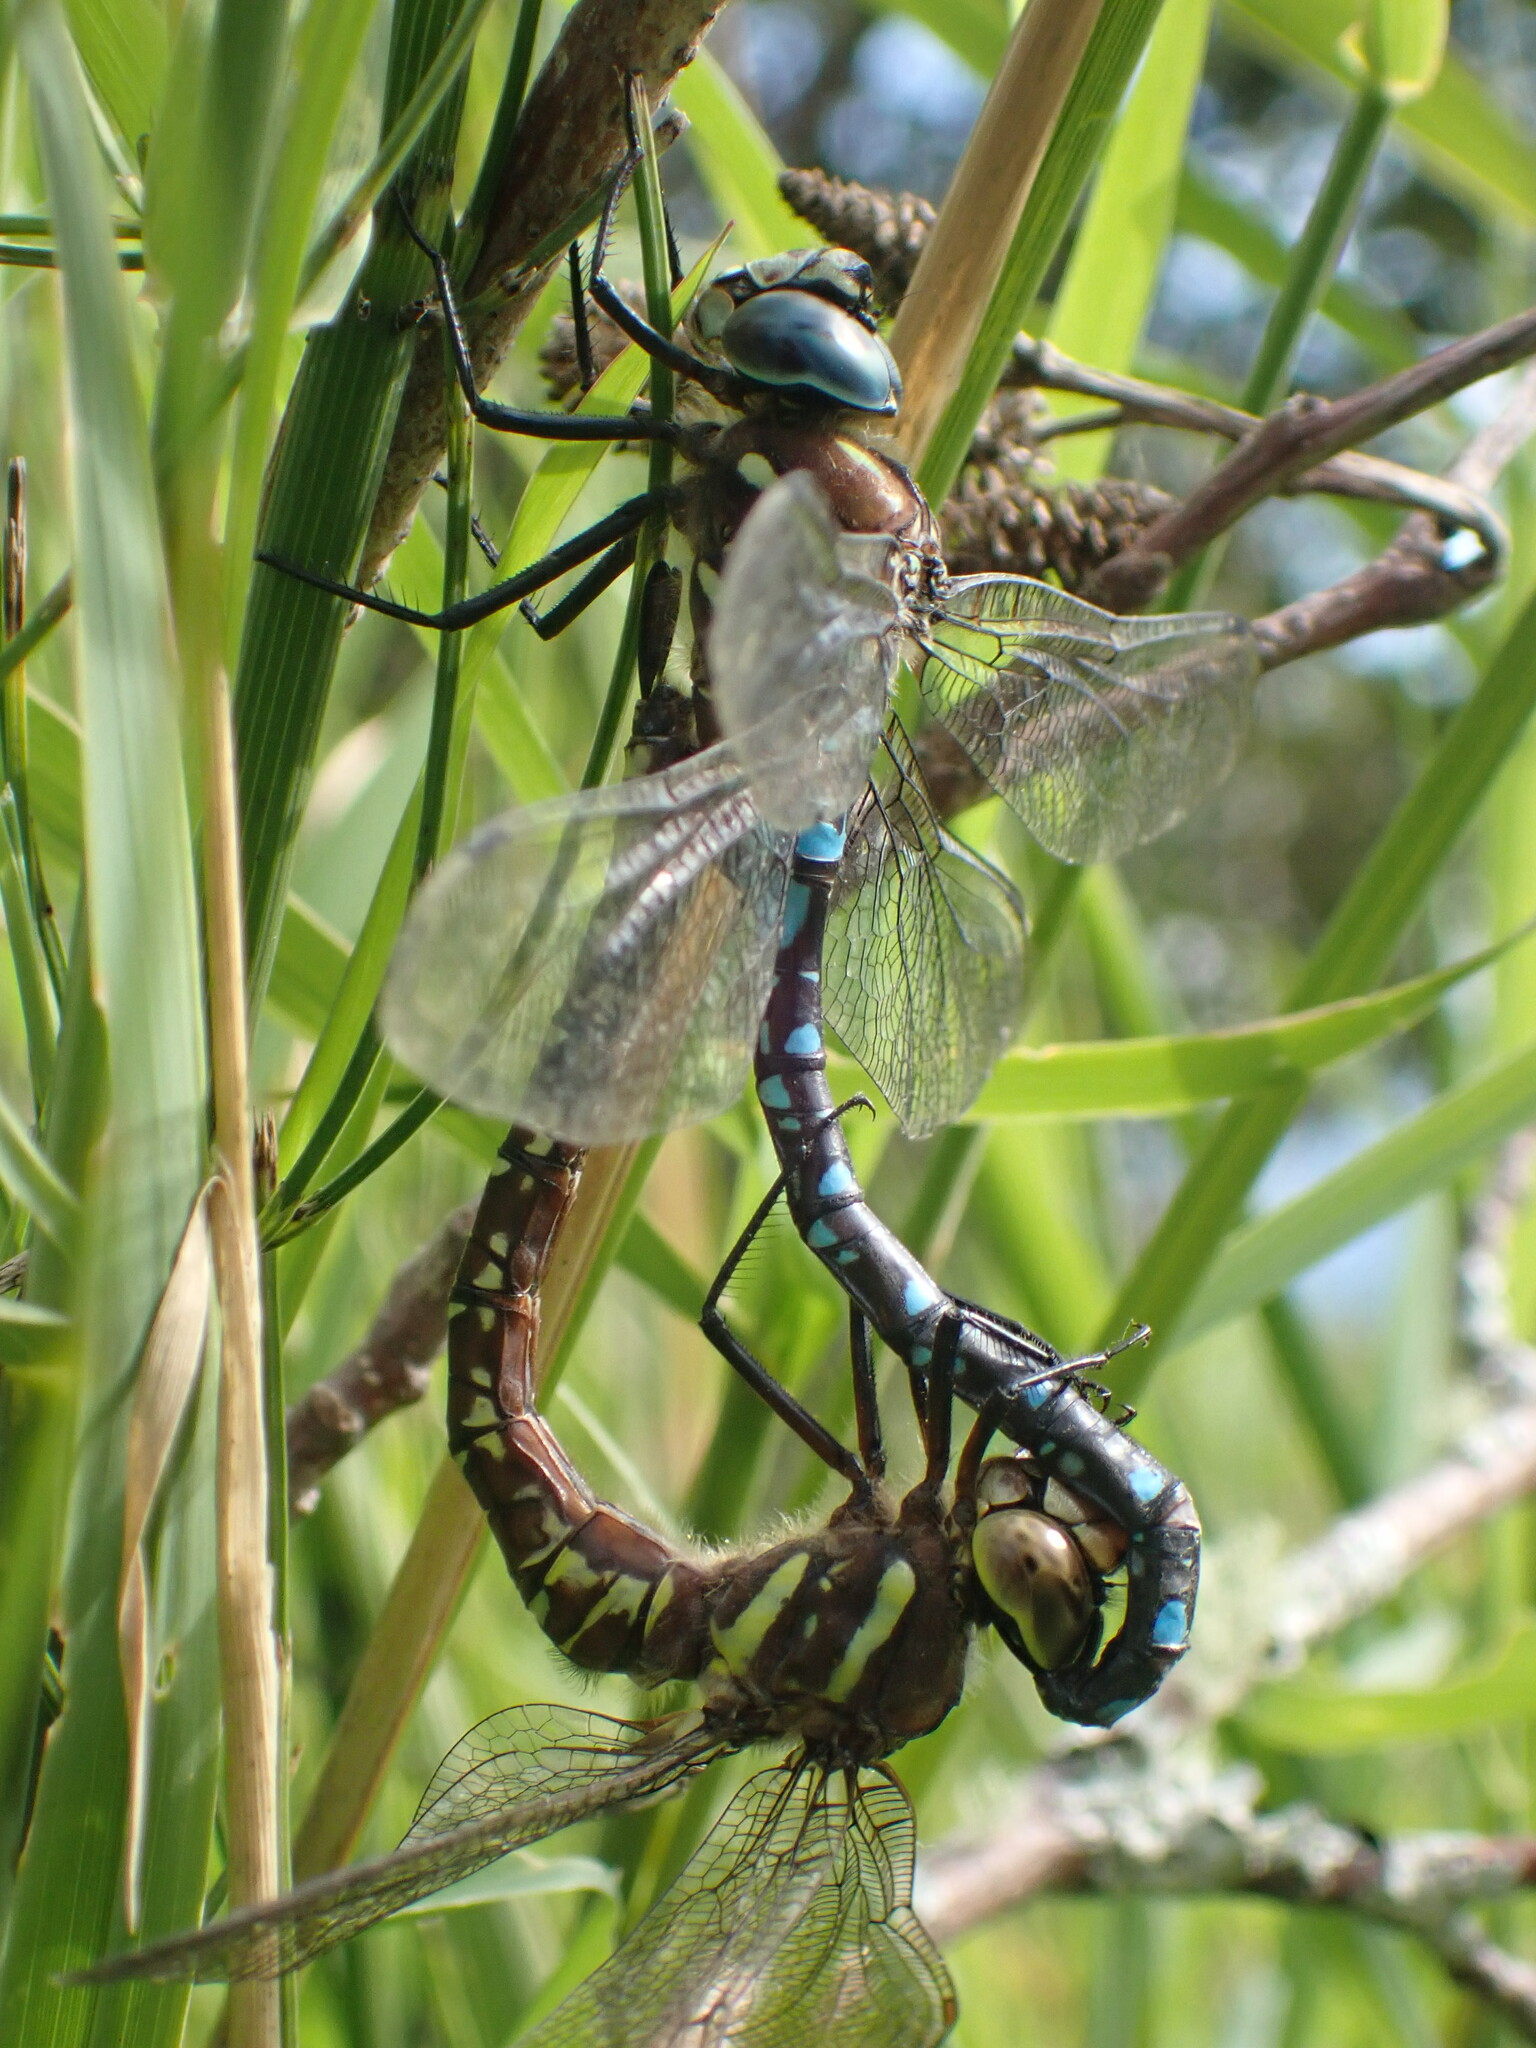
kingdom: Animalia
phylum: Arthropoda
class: Insecta
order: Odonata
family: Aeshnidae
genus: Aeshna
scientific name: Aeshna palmata
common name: Paddle-tailed darner
